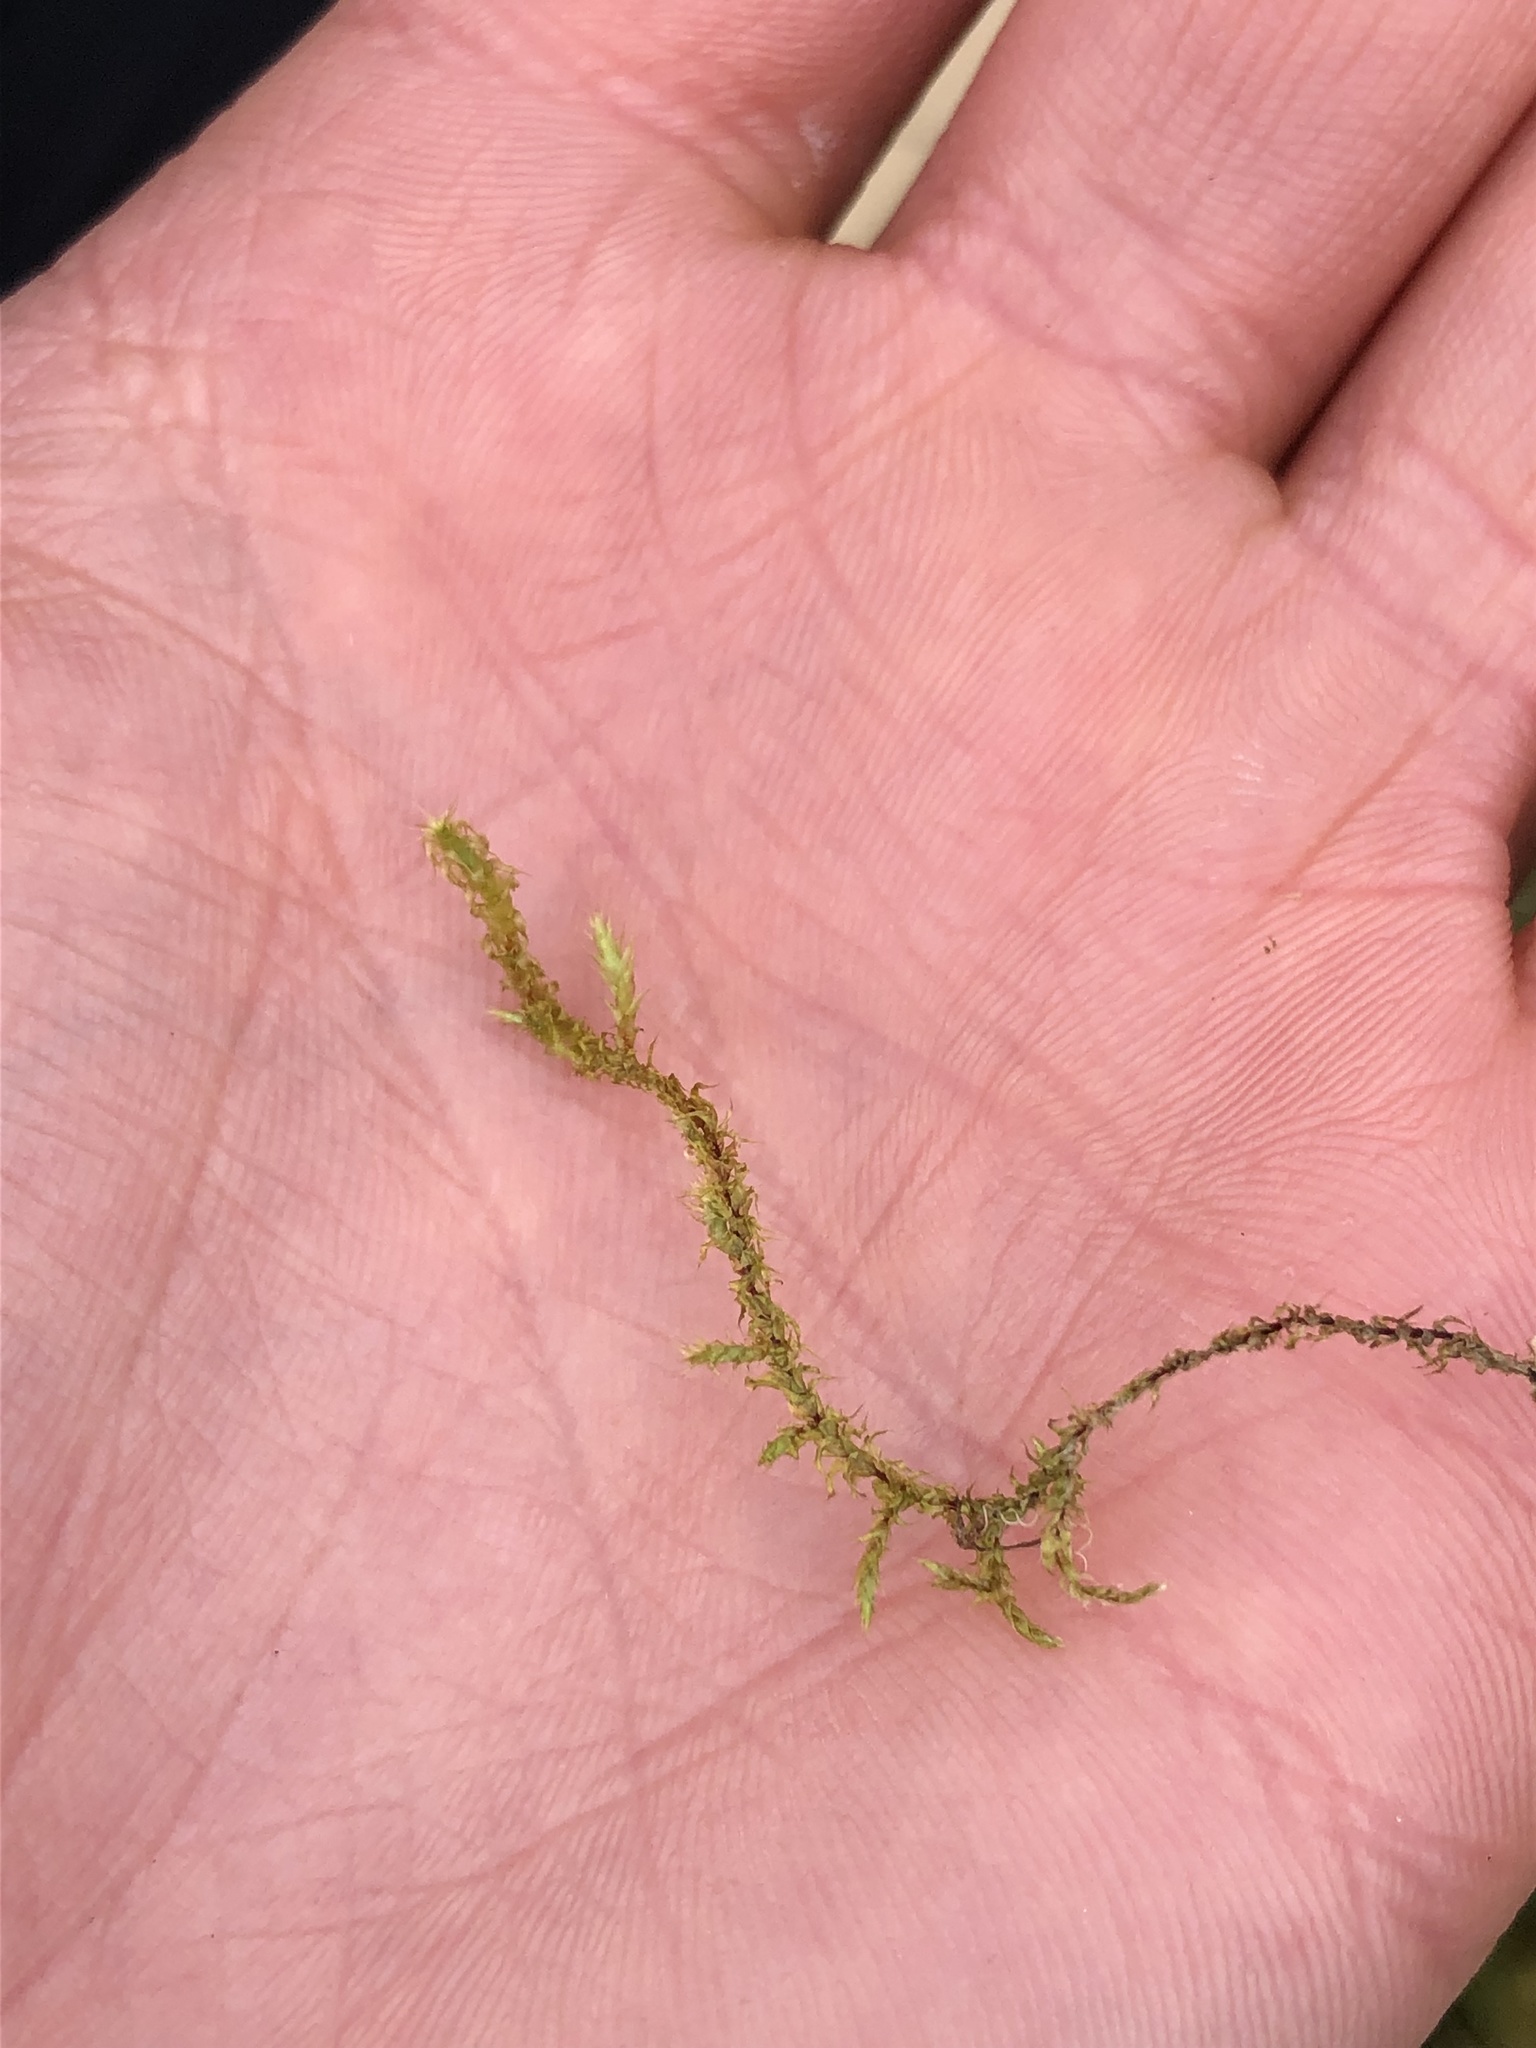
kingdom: Plantae
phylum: Bryophyta
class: Bryopsida
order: Hypnales
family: Hylocomiaceae
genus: Rhytidiadelphus
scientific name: Rhytidiadelphus squarrosus
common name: Springy turf-moss
